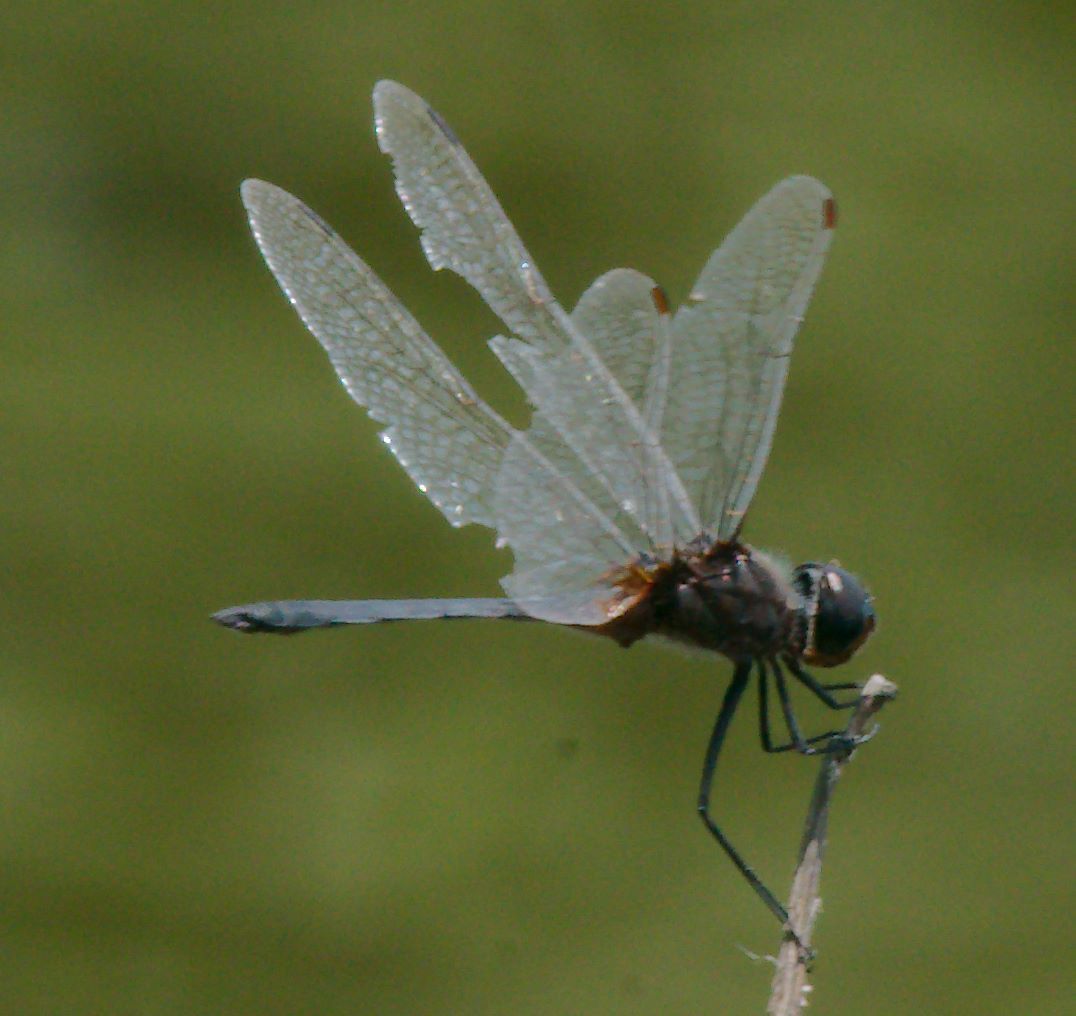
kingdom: Animalia
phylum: Arthropoda
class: Insecta
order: Odonata
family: Libellulidae
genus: Idiataphe
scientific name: Idiataphe cubensis
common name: Metallic pennant
